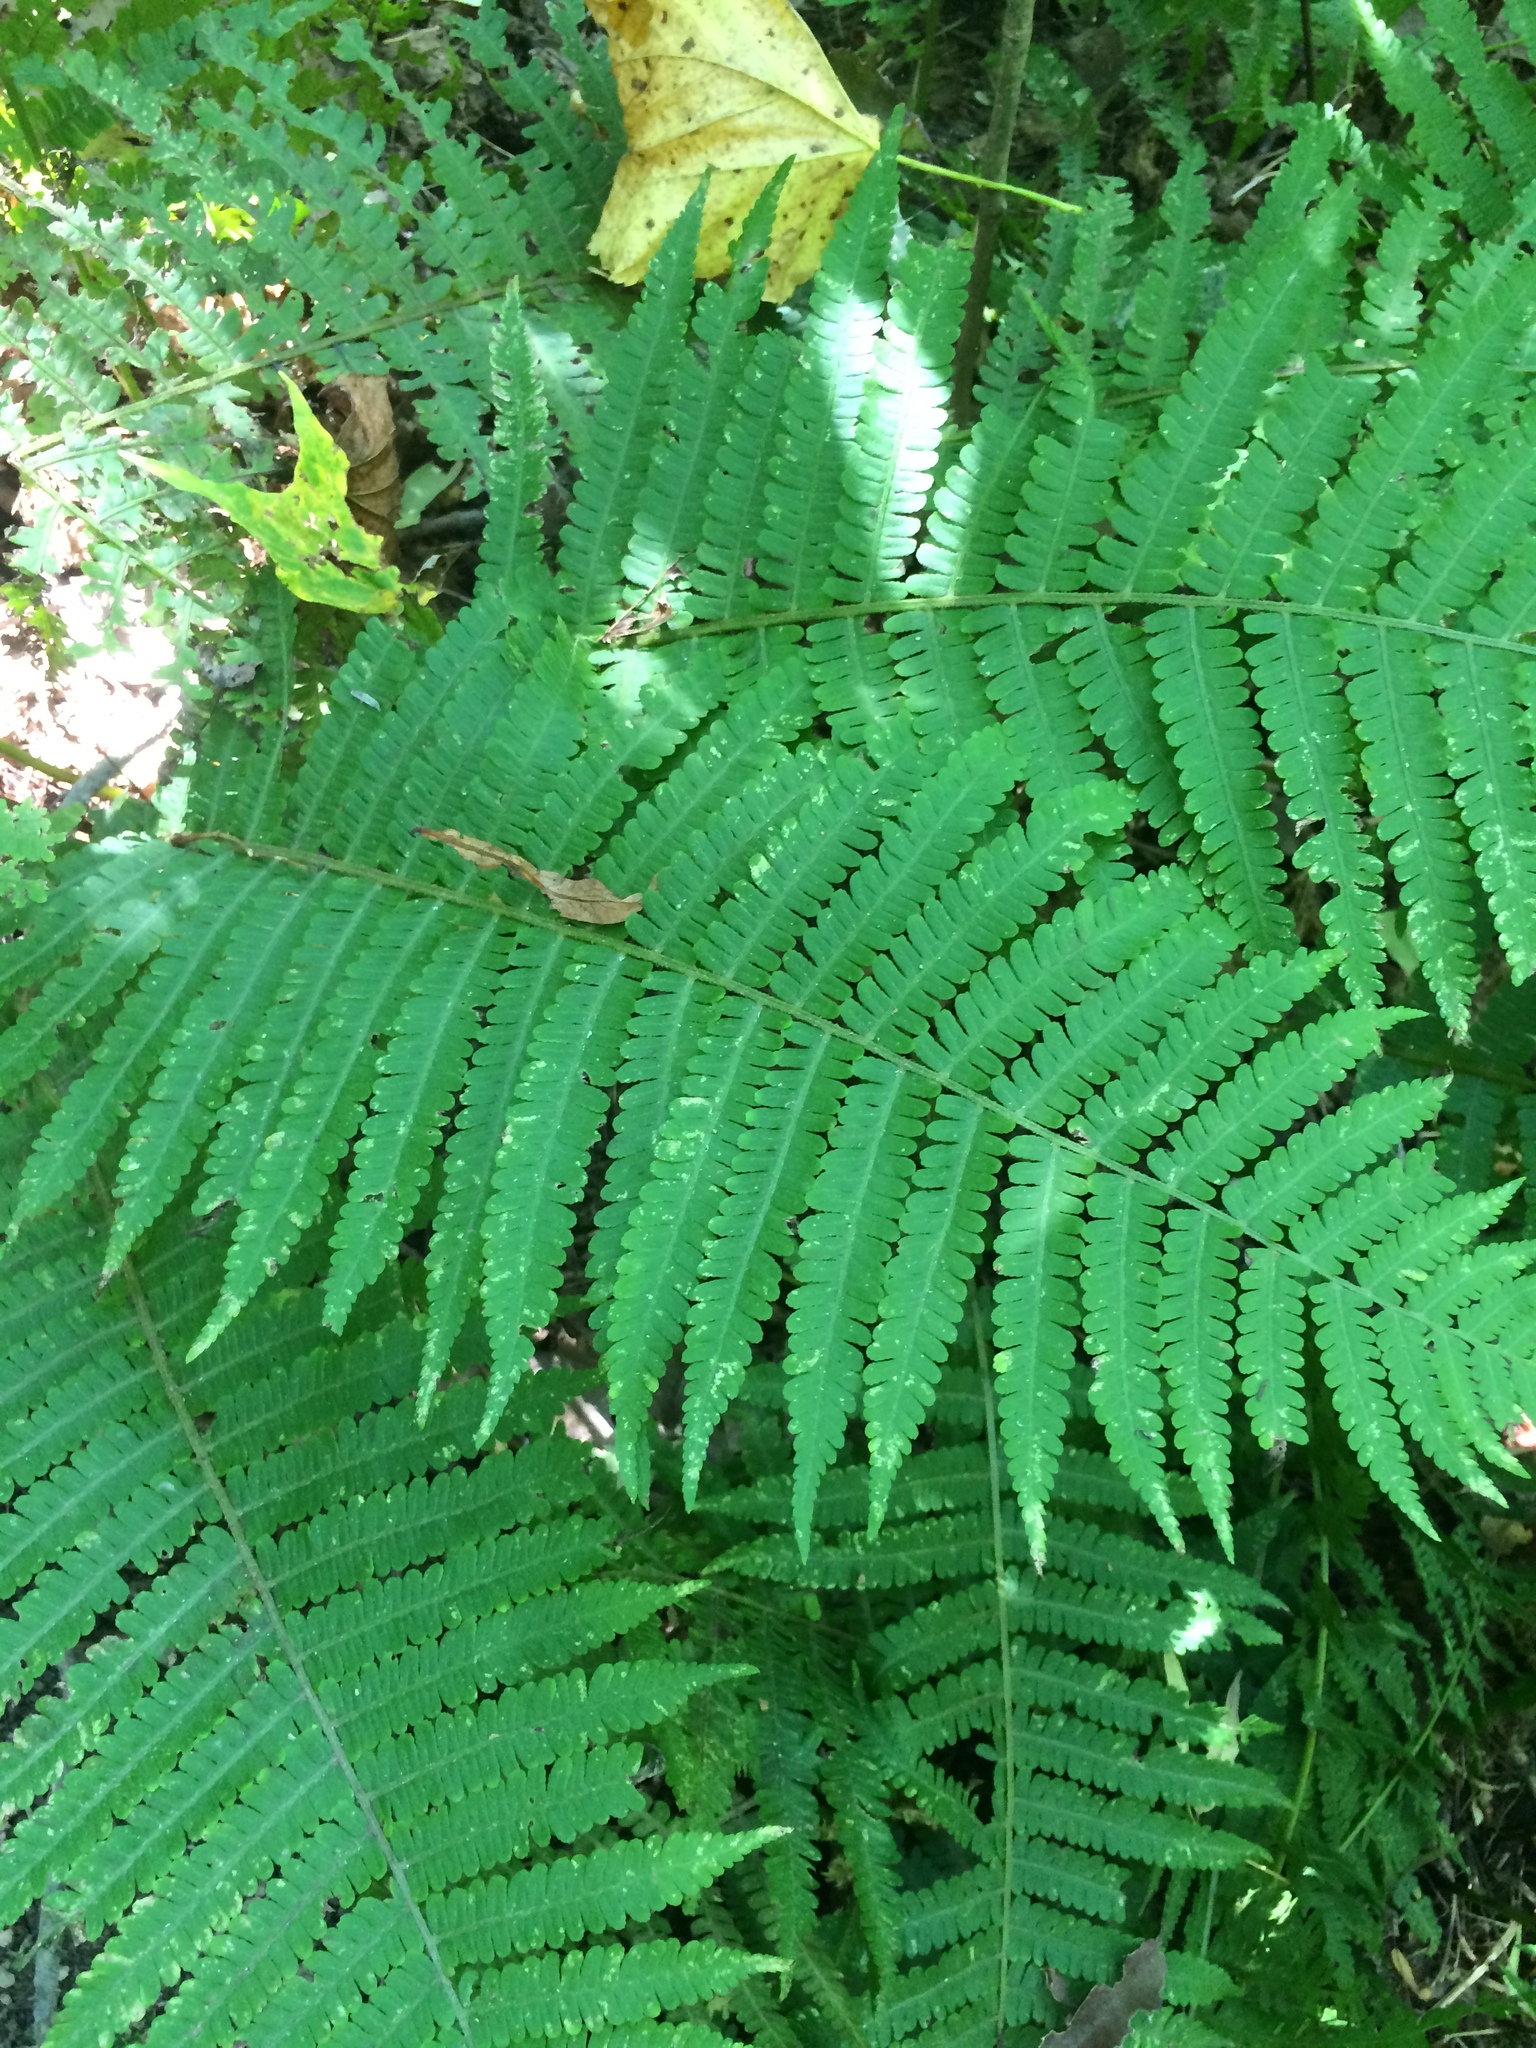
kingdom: Plantae
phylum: Tracheophyta
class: Polypodiopsida
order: Polypodiales
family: Athyriaceae
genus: Deparia
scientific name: Deparia acrostichoides
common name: Silver false spleenwort
